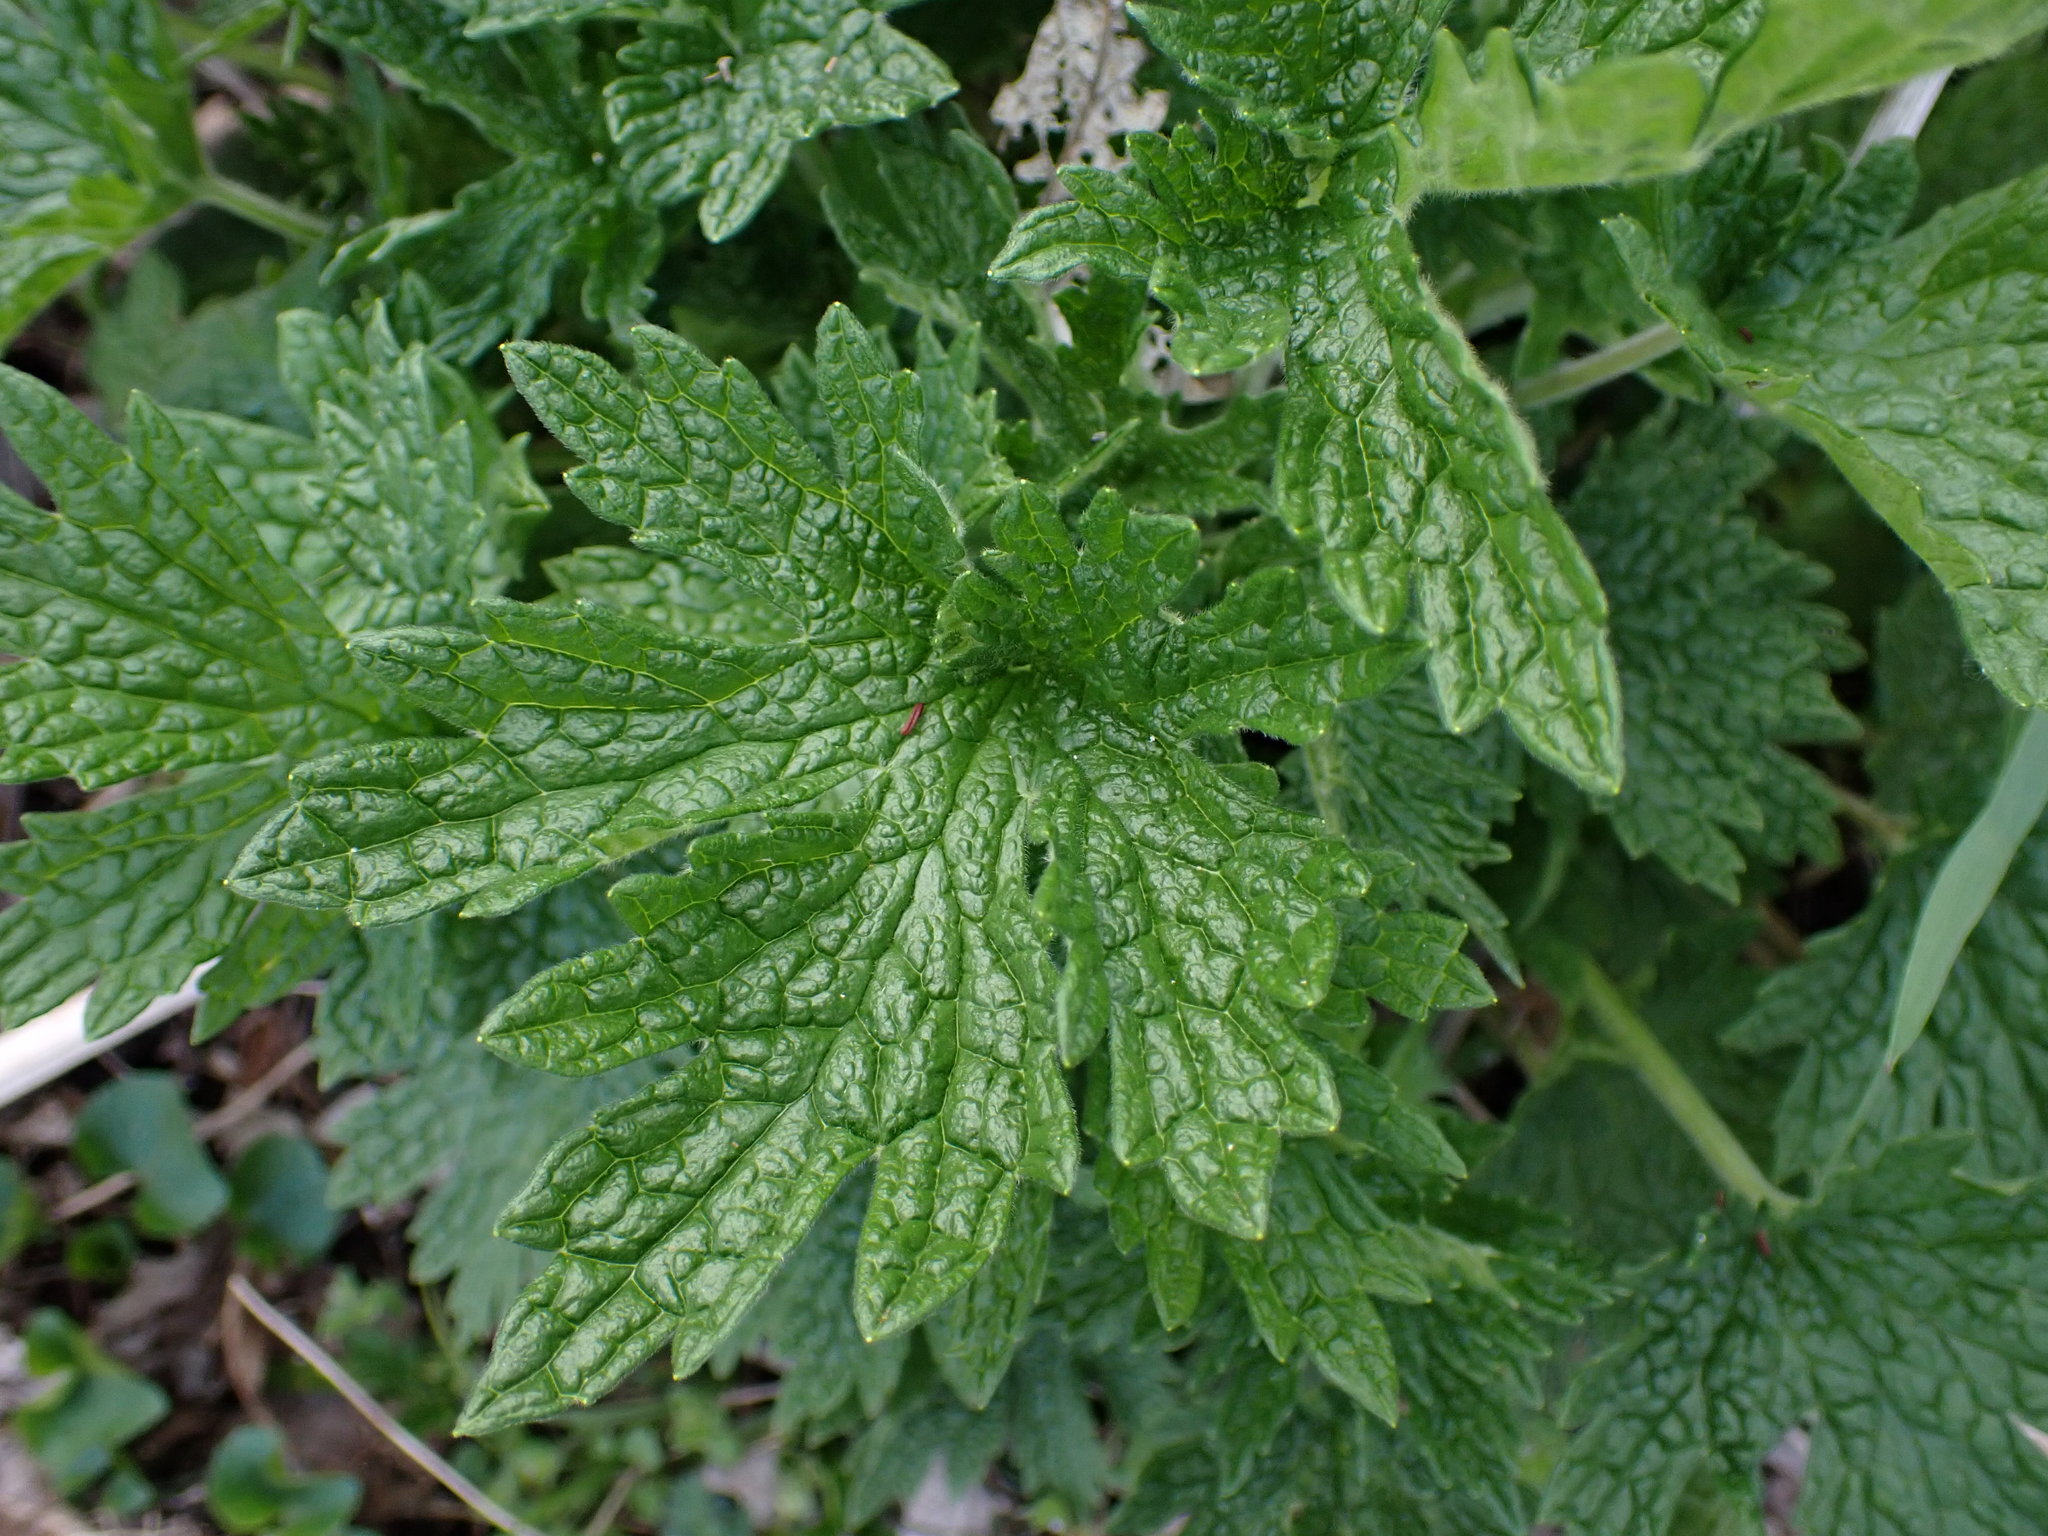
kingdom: Plantae
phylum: Tracheophyta
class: Magnoliopsida
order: Lamiales
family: Lamiaceae
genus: Leonurus
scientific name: Leonurus cardiaca
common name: Motherwort
